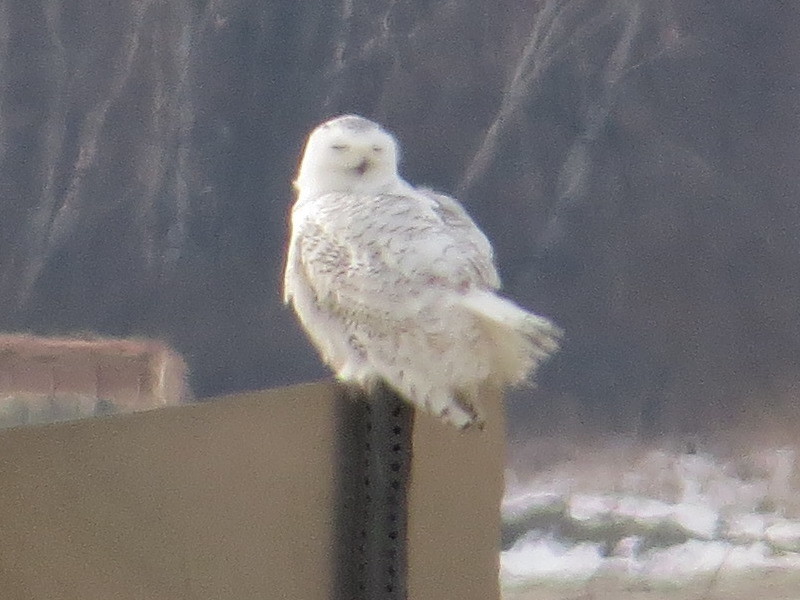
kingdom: Animalia
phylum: Chordata
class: Aves
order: Strigiformes
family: Strigidae
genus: Bubo
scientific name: Bubo scandiacus
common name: Snowy owl
